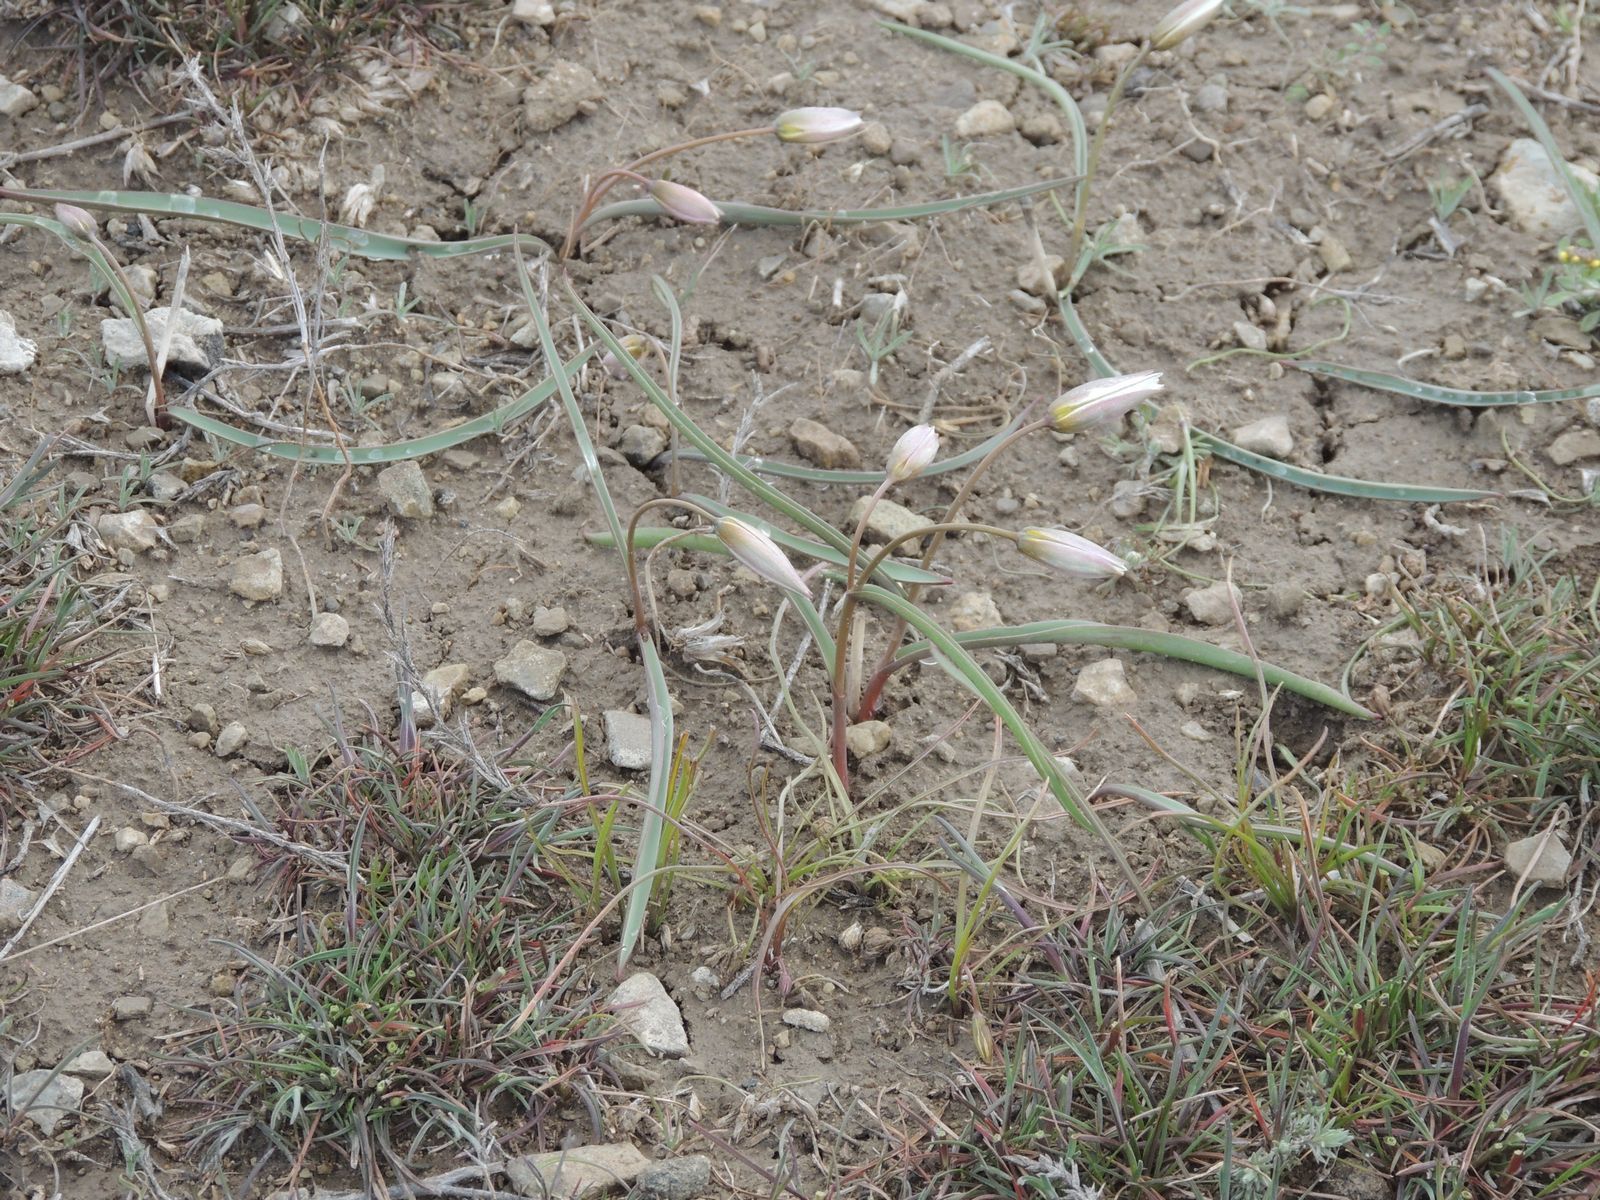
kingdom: Plantae
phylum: Tracheophyta
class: Liliopsida
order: Liliales
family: Liliaceae
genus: Tulipa
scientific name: Tulipa biflora
